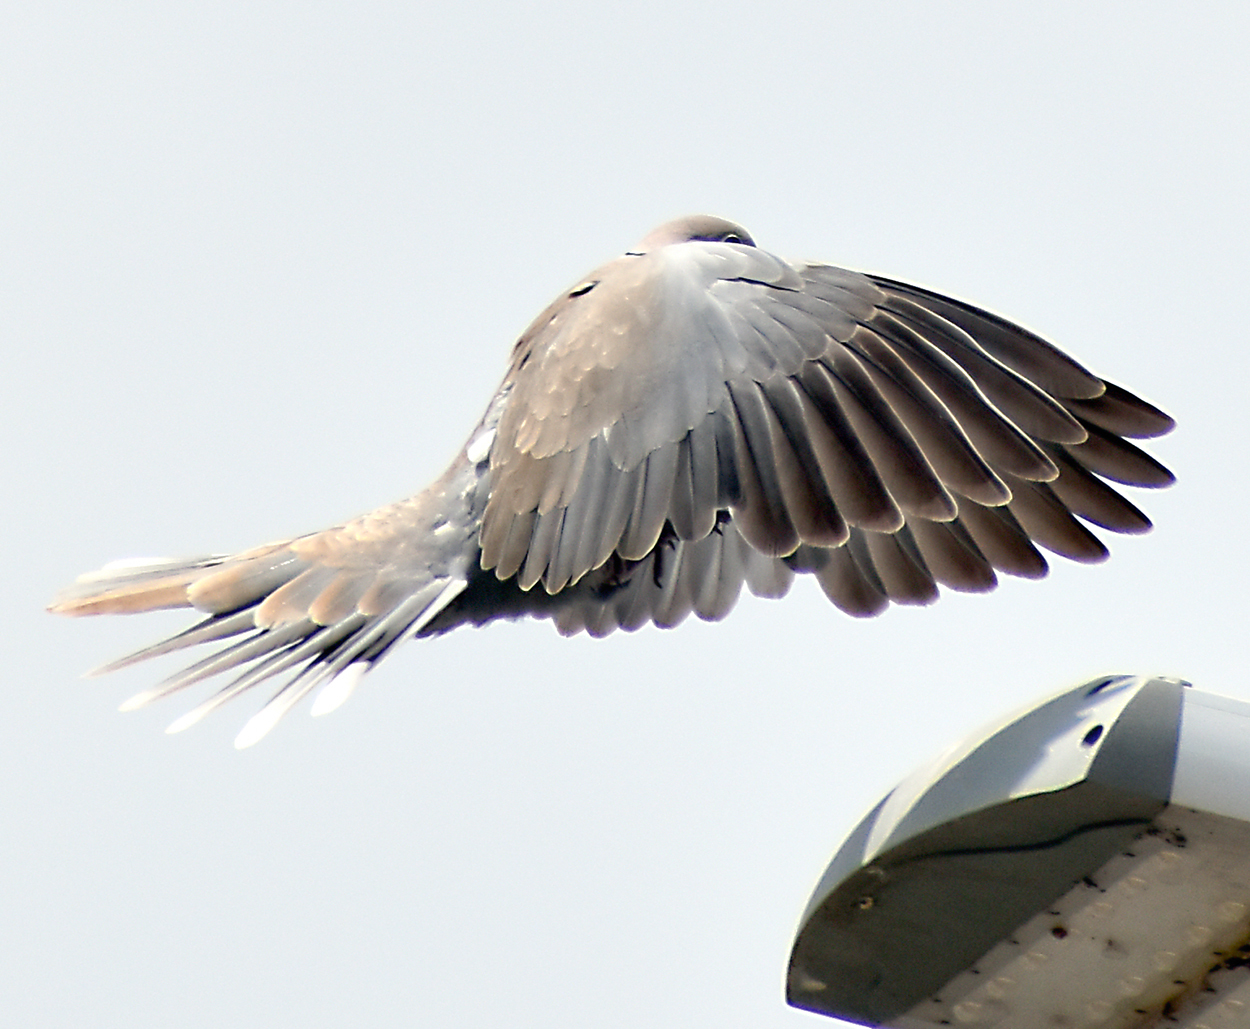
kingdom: Animalia
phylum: Chordata
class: Aves
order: Columbiformes
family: Columbidae
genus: Streptopelia
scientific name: Streptopelia decaocto
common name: Eurasian collared dove
